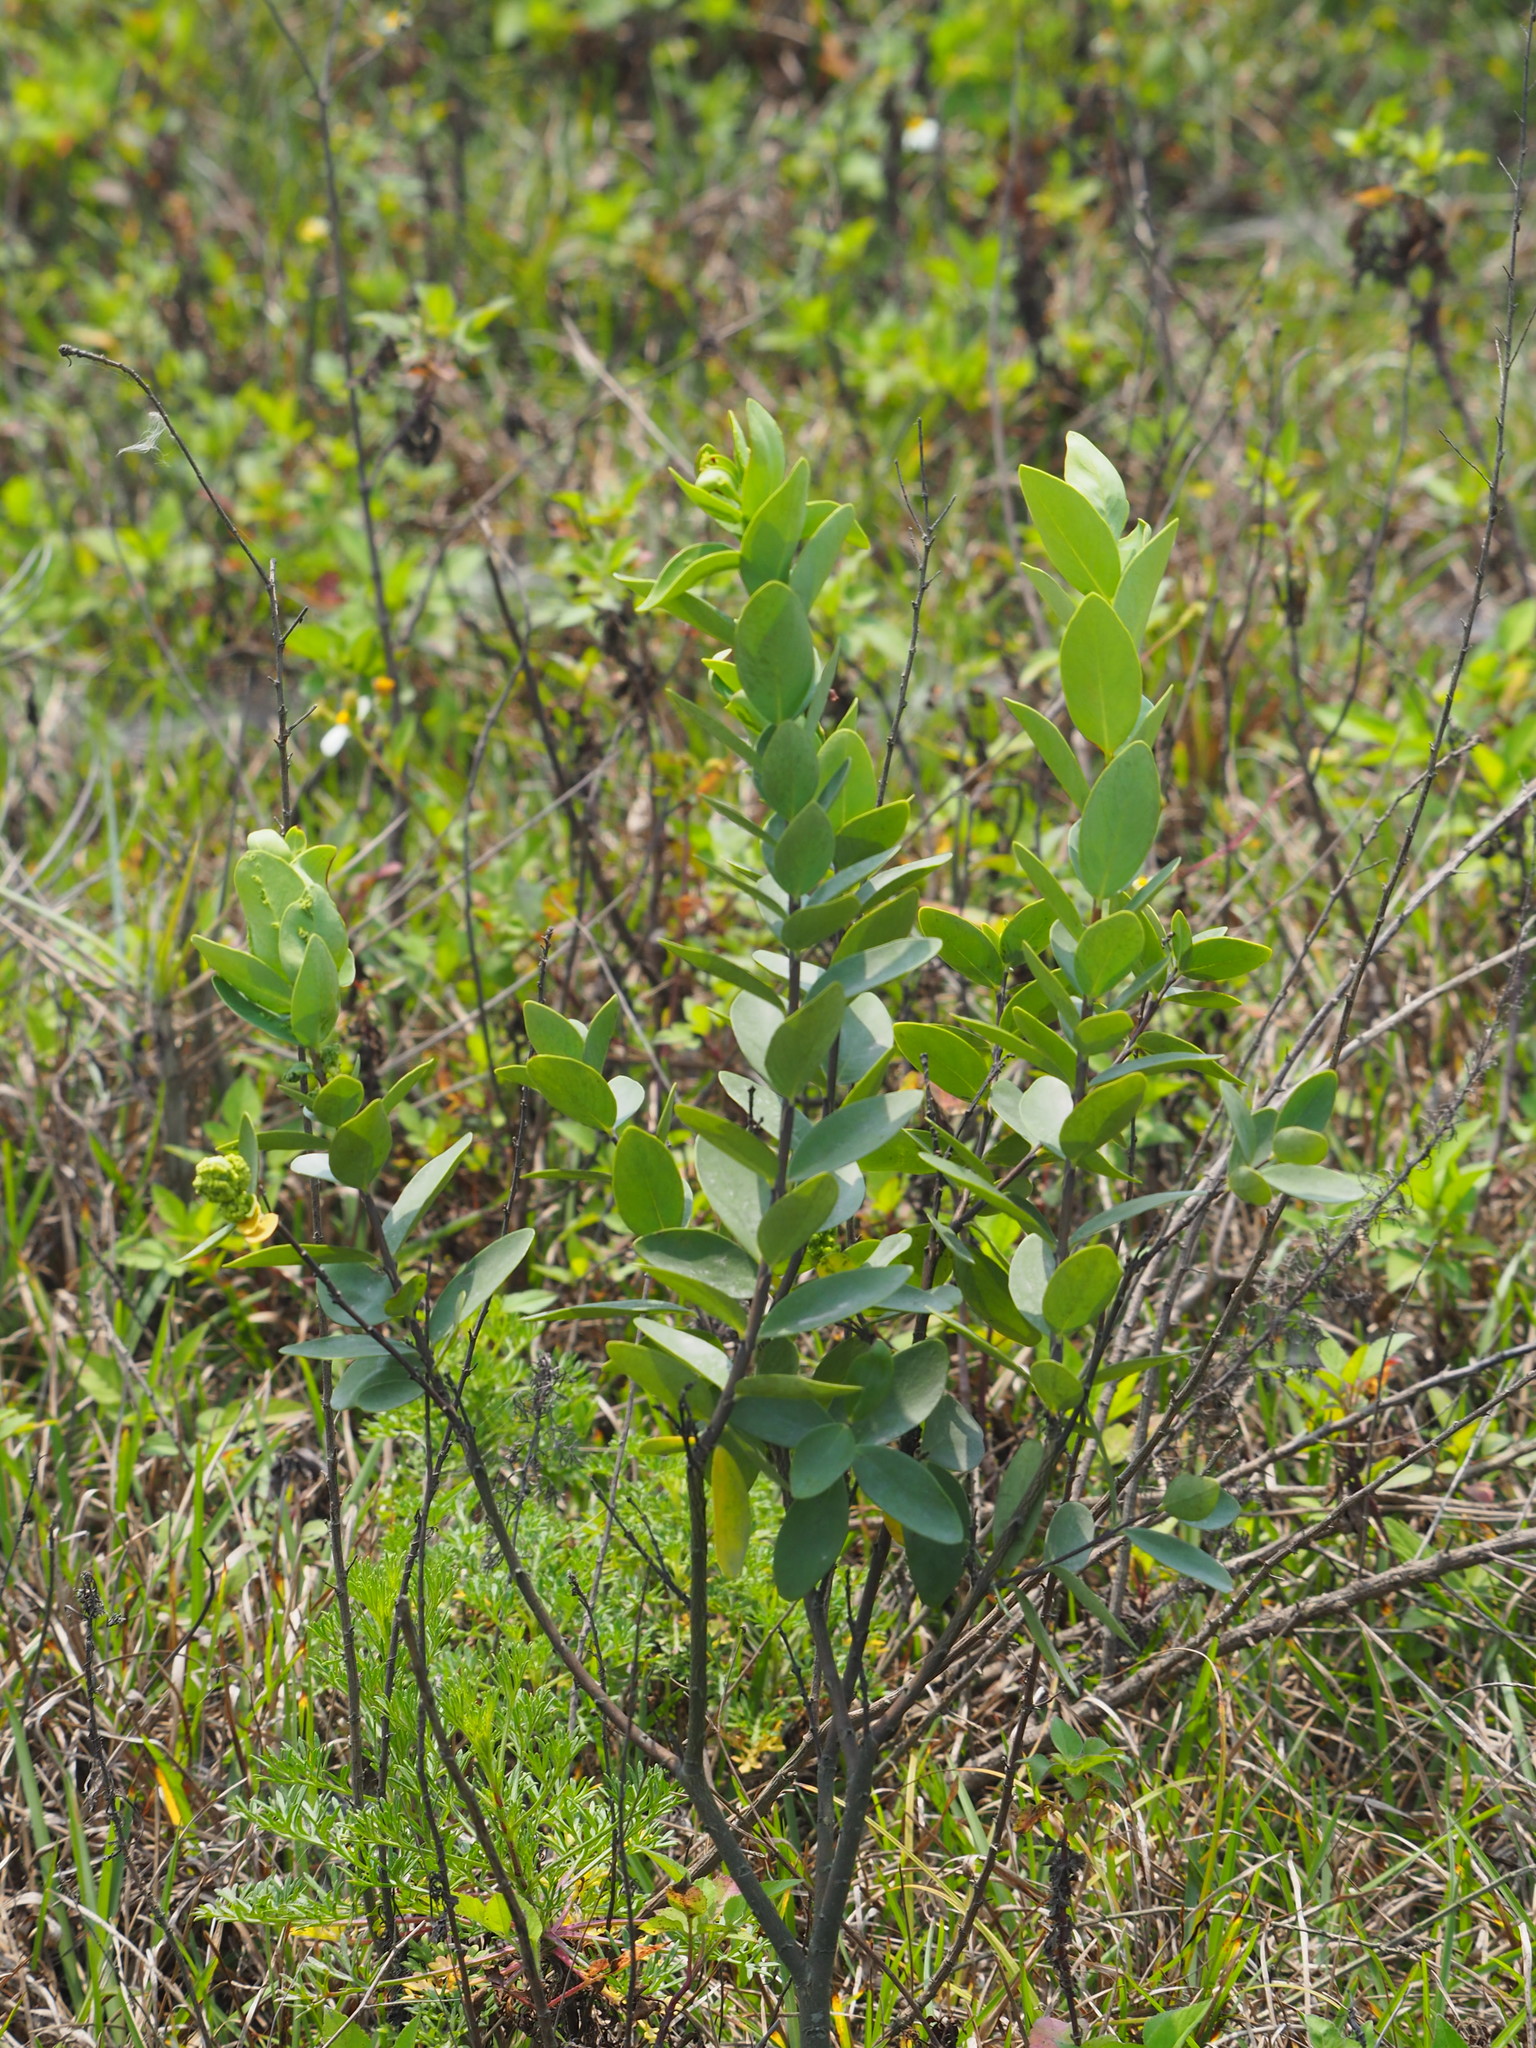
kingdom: Plantae
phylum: Tracheophyta
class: Magnoliopsida
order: Malvales
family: Thymelaeaceae
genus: Wikstroemia
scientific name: Wikstroemia indica
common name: Tiebush
